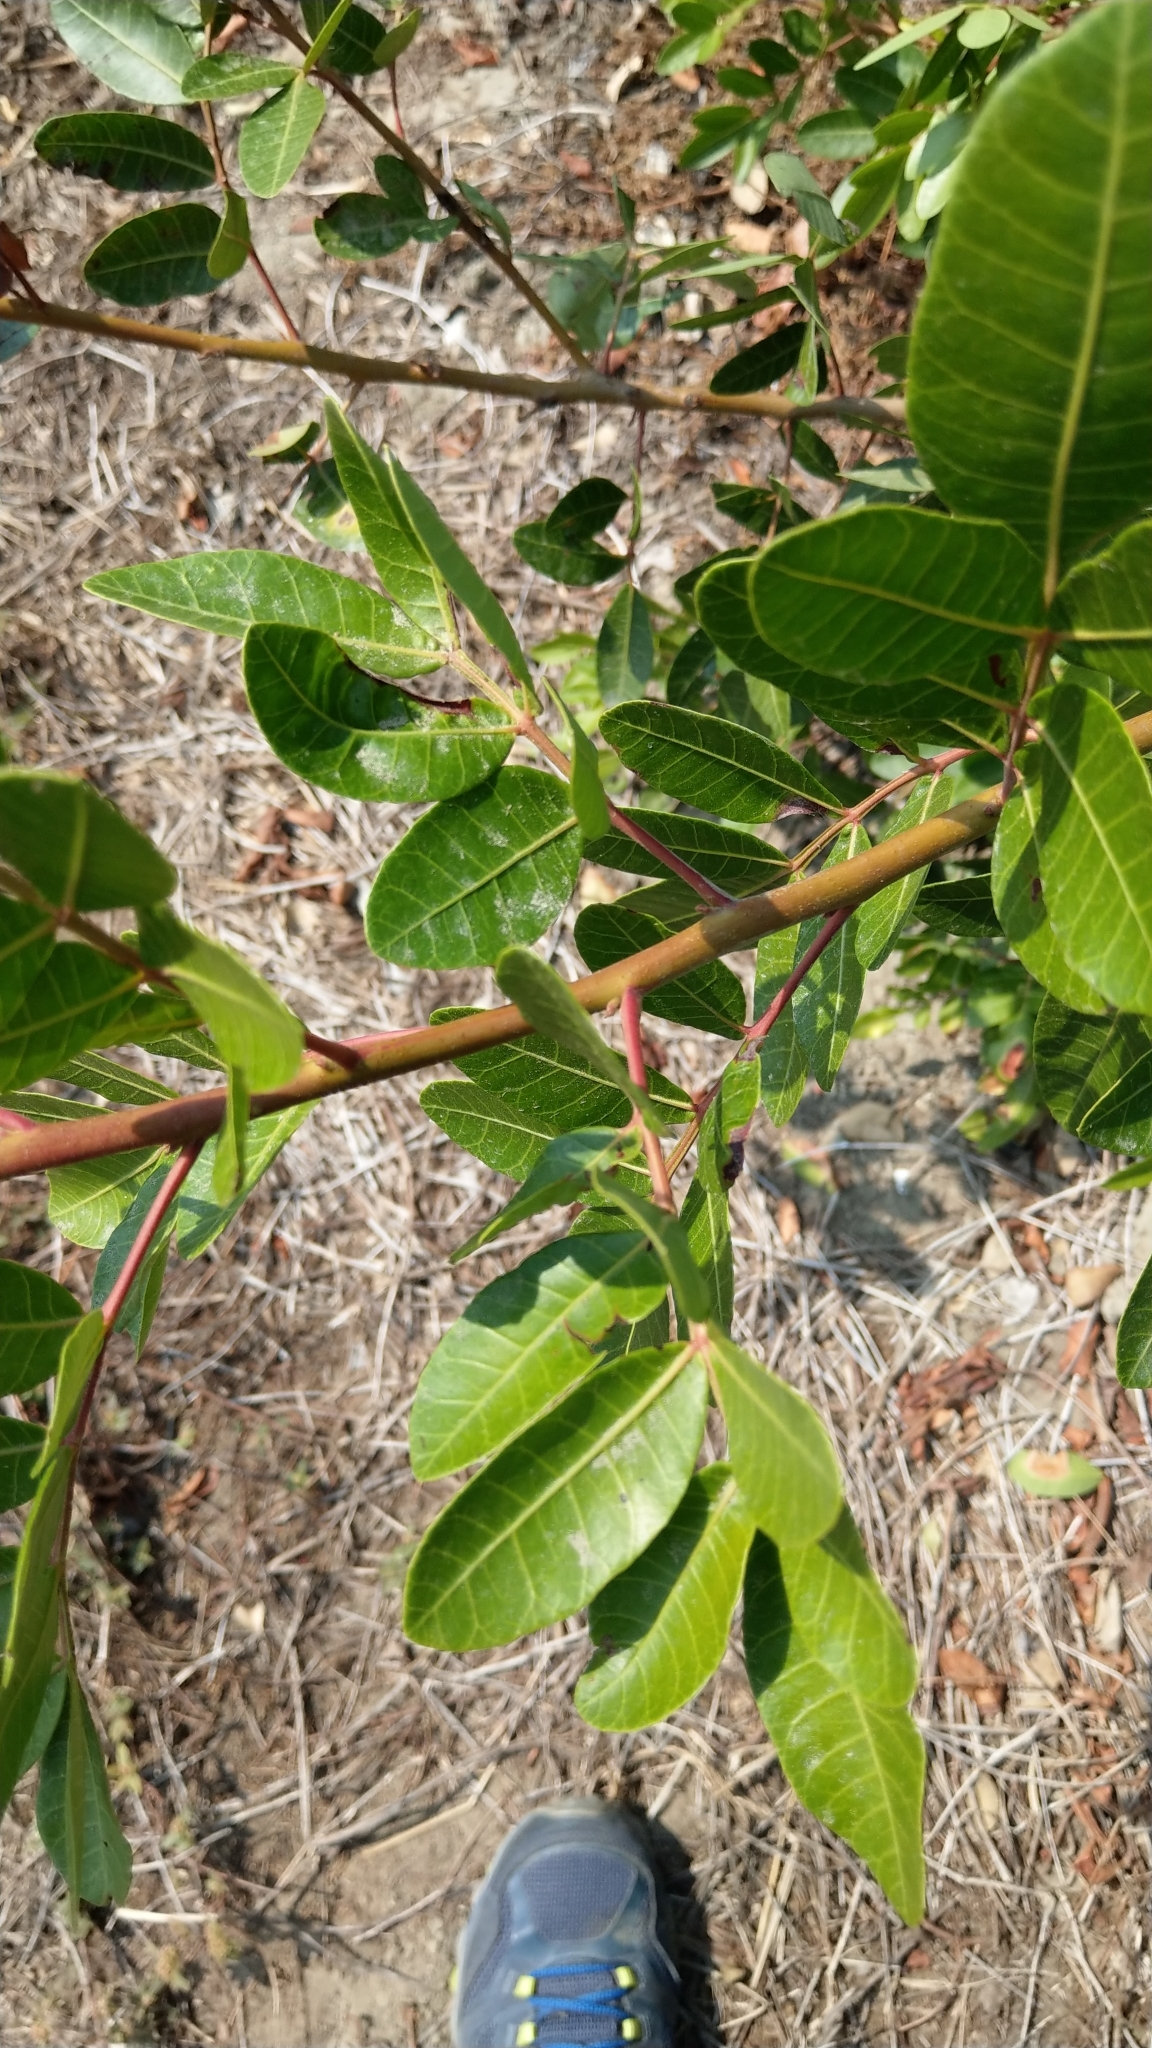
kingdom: Plantae
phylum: Tracheophyta
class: Magnoliopsida
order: Sapindales
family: Anacardiaceae
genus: Schinus
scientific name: Schinus terebinthifolia
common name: Brazilian peppertree
